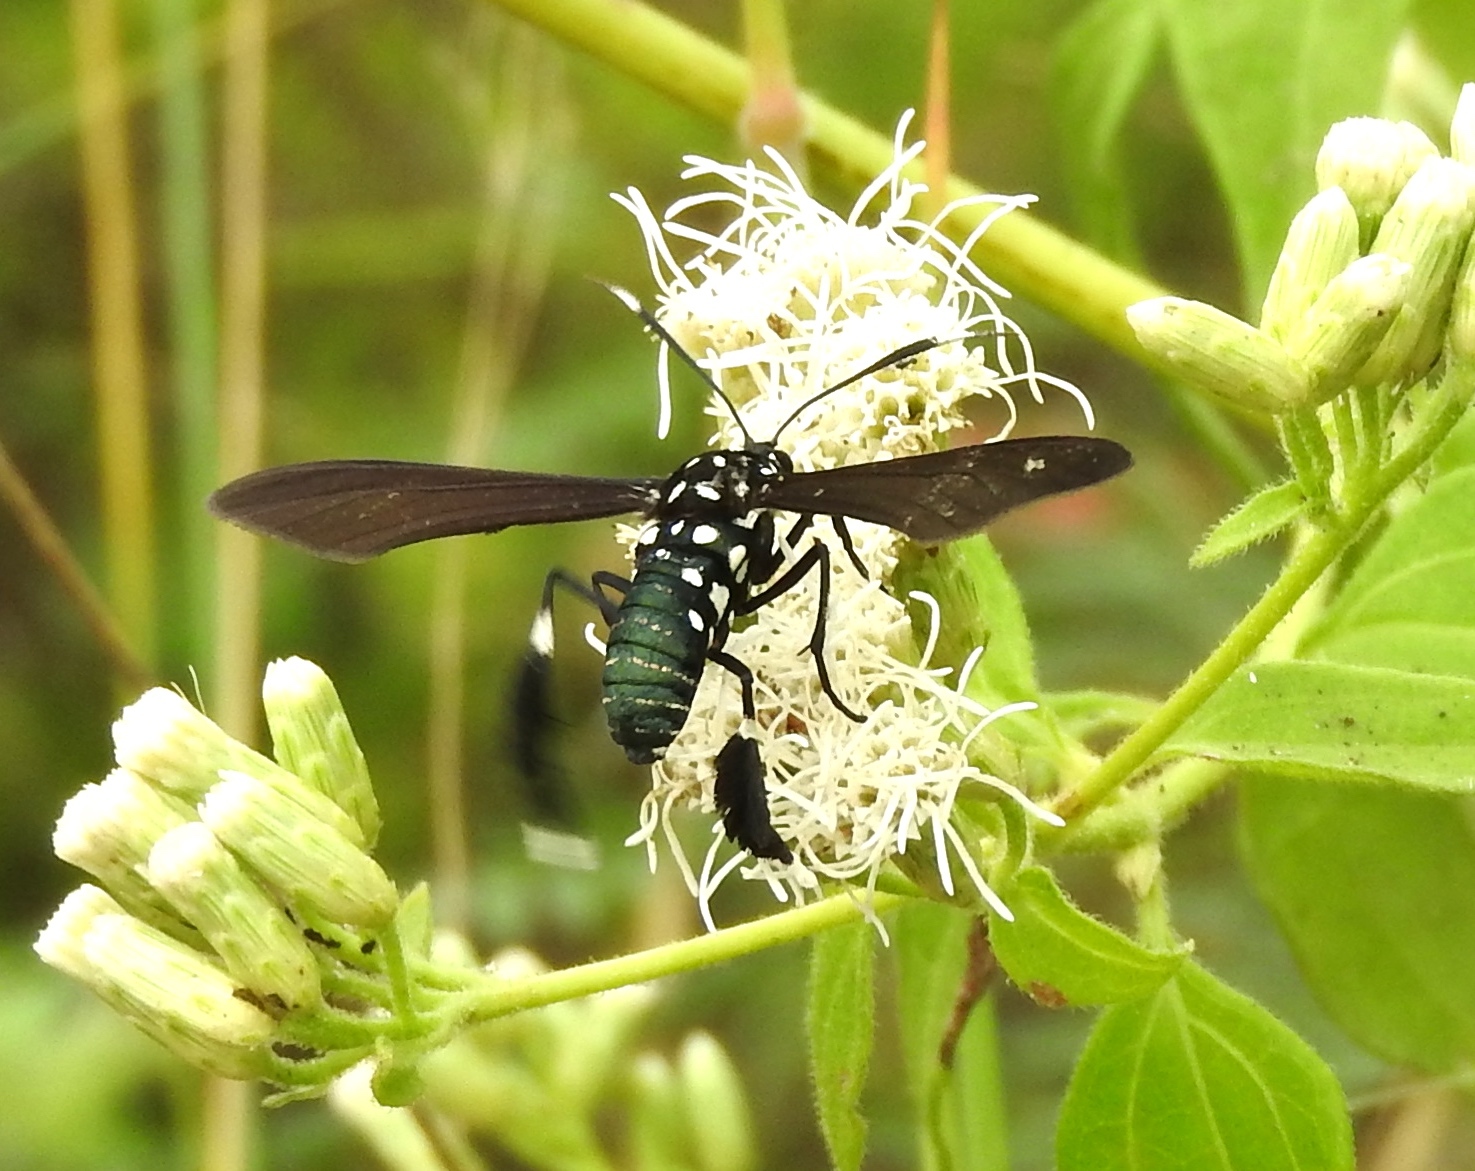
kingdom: Animalia
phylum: Arthropoda
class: Insecta
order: Lepidoptera
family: Erebidae
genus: Horama
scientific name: Horama plumipes
